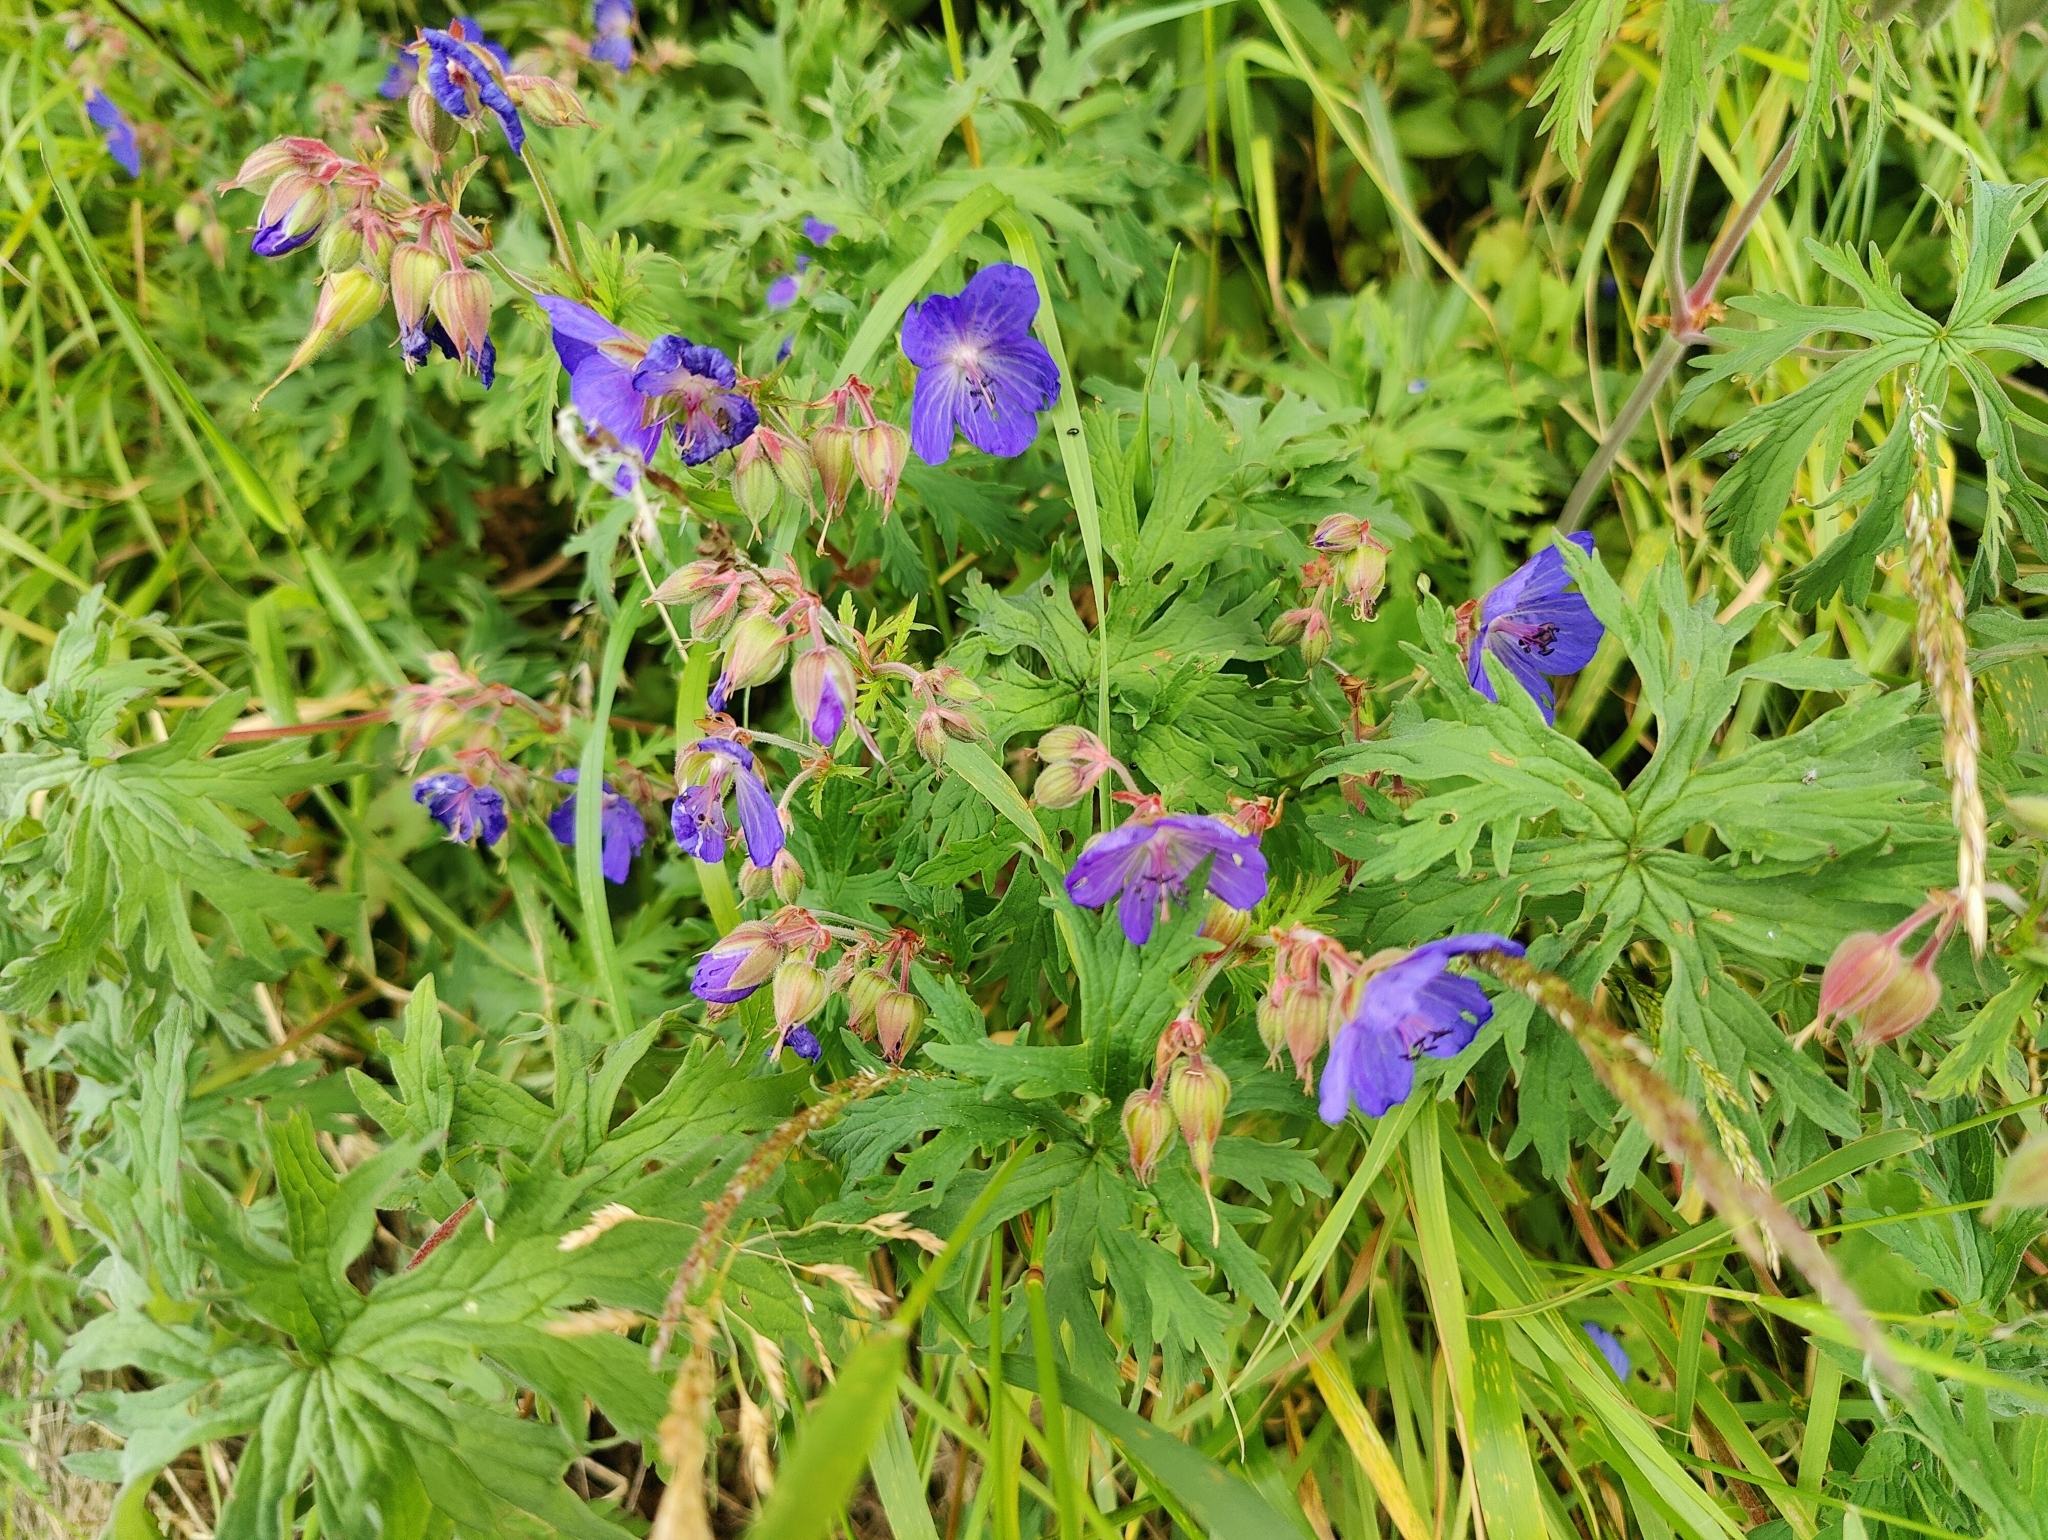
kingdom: Plantae
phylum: Tracheophyta
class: Magnoliopsida
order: Geraniales
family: Geraniaceae
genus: Geranium
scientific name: Geranium pratense
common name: Meadow crane's-bill
